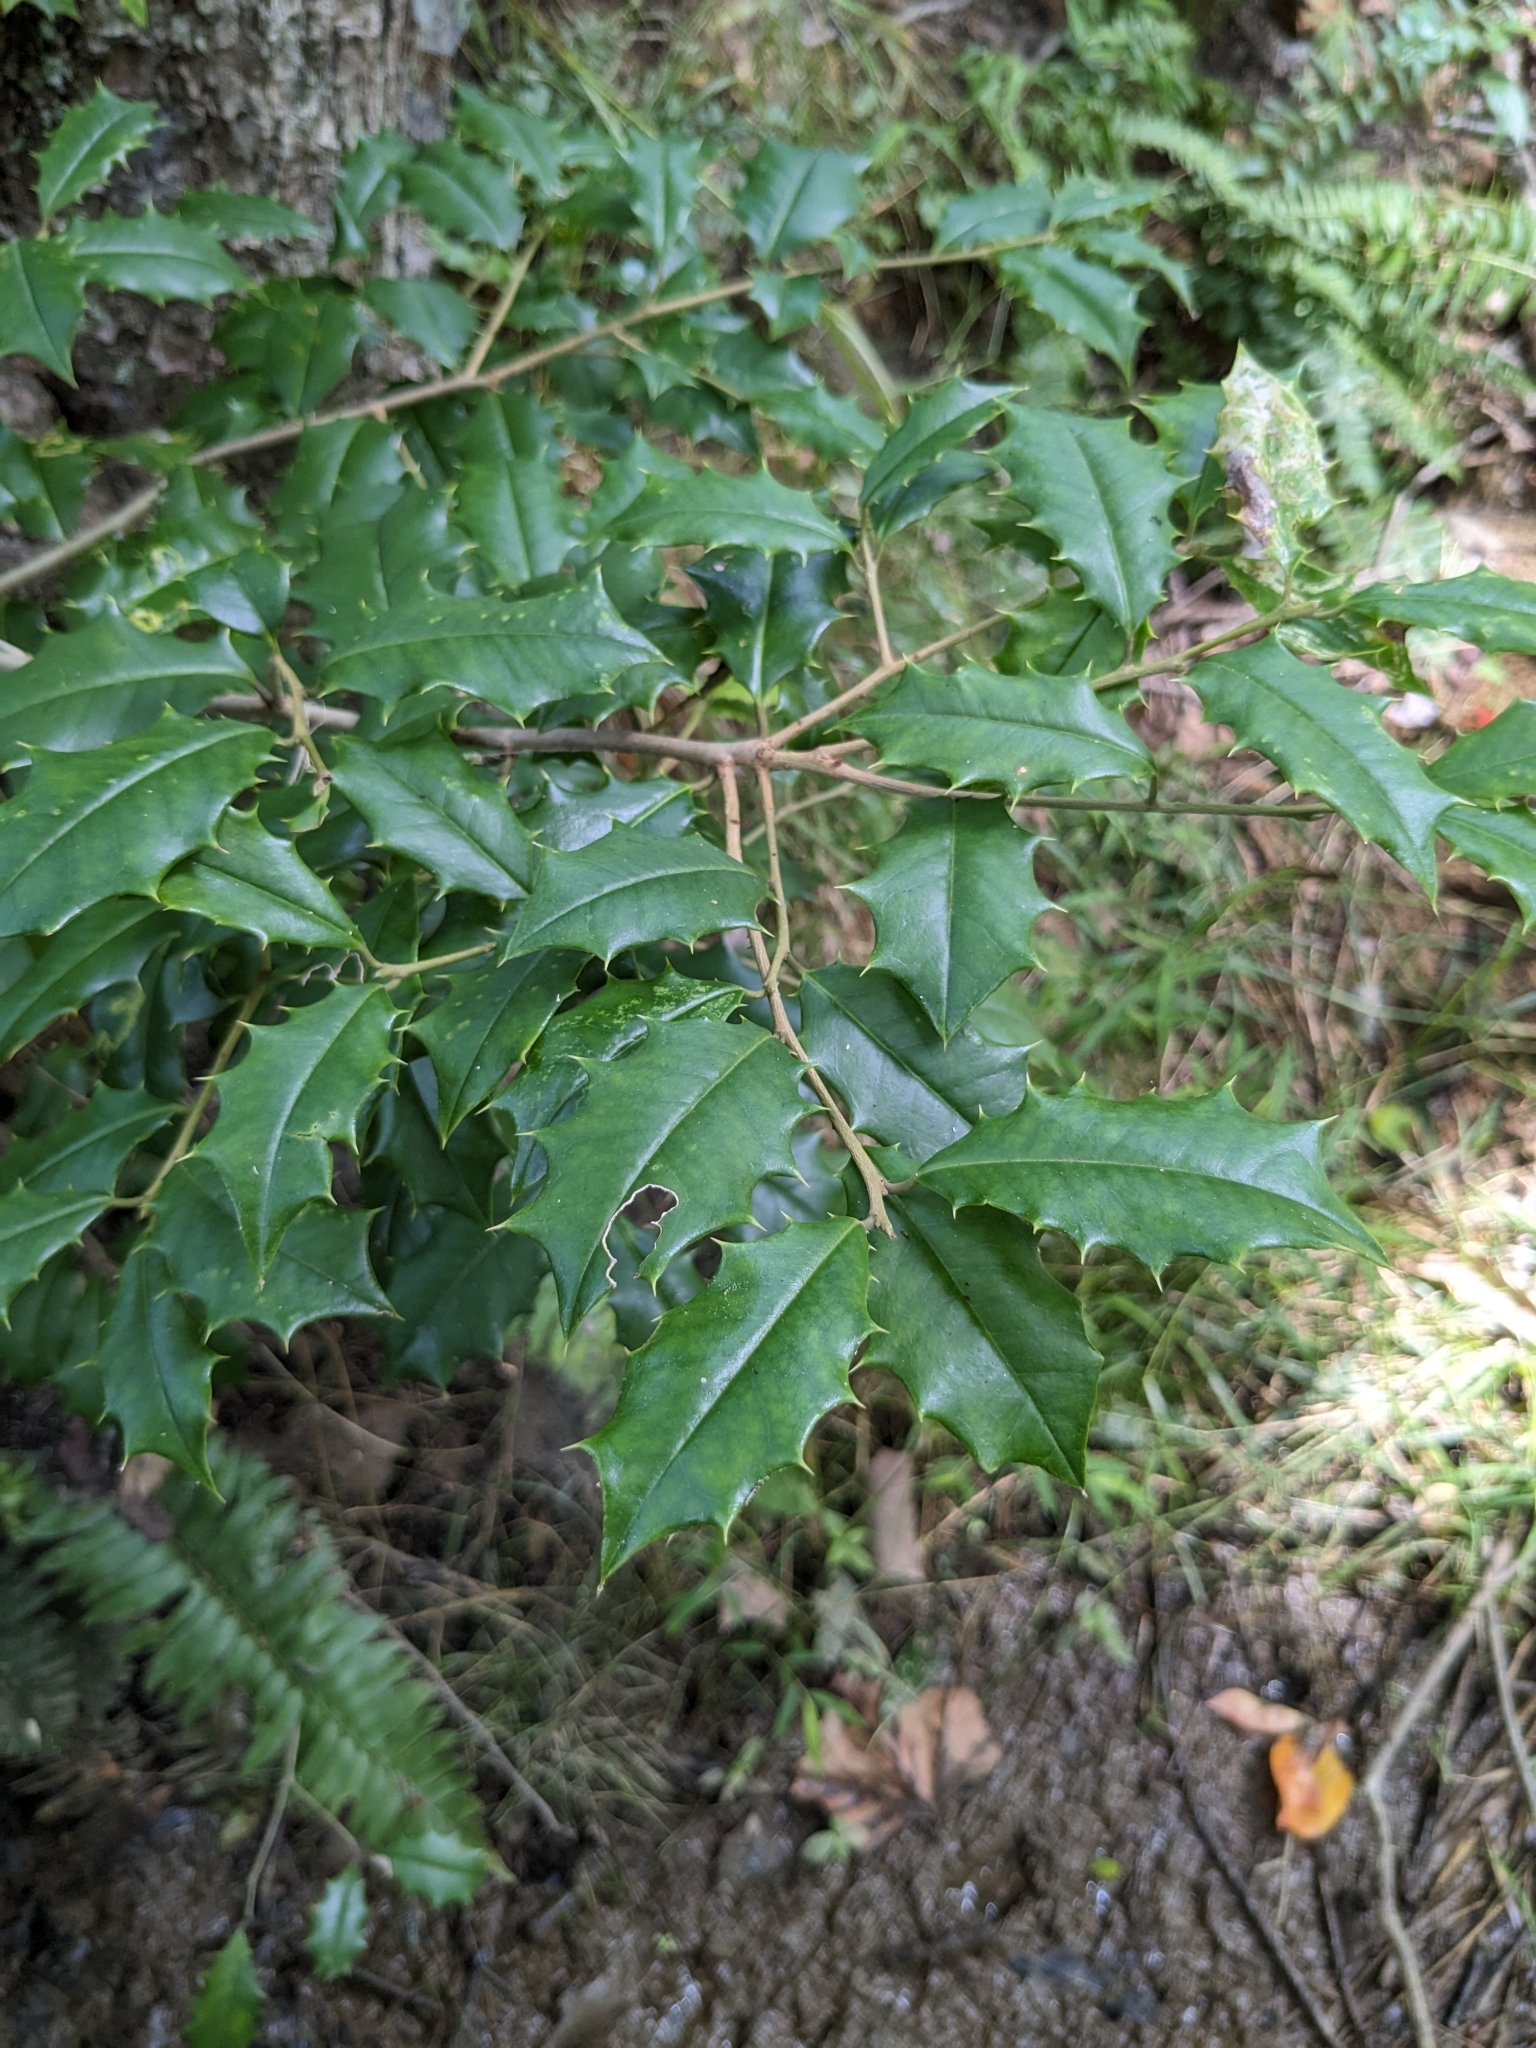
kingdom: Plantae
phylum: Tracheophyta
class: Magnoliopsida
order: Aquifoliales
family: Aquifoliaceae
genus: Ilex
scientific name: Ilex opaca
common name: American holly
